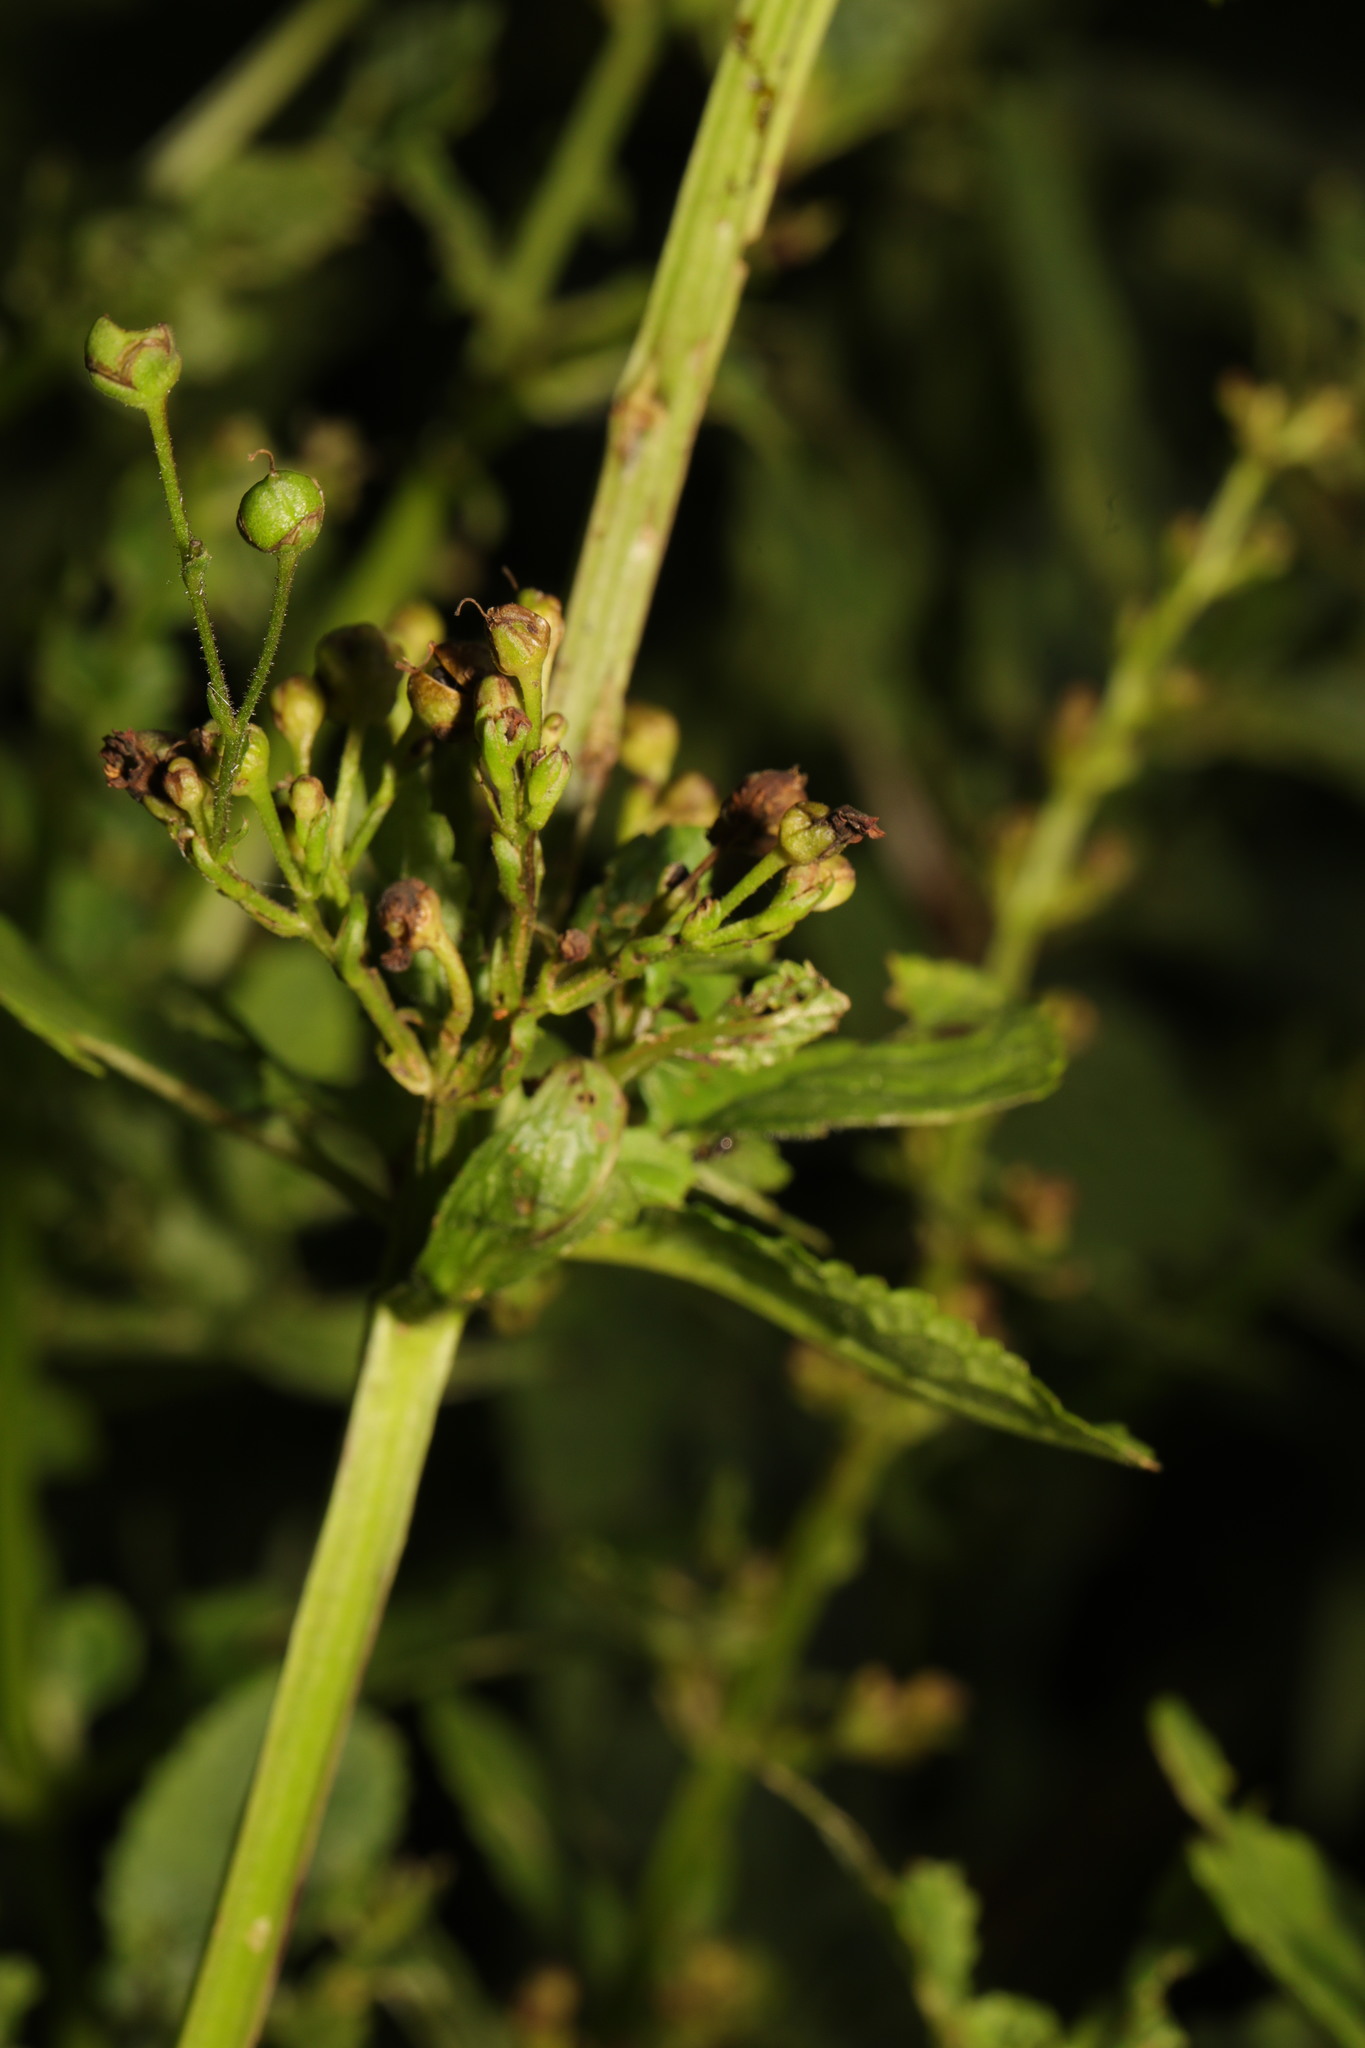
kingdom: Plantae
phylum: Tracheophyta
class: Magnoliopsida
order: Lamiales
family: Scrophulariaceae
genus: Scrophularia
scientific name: Scrophularia nodosa
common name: Common figwort
